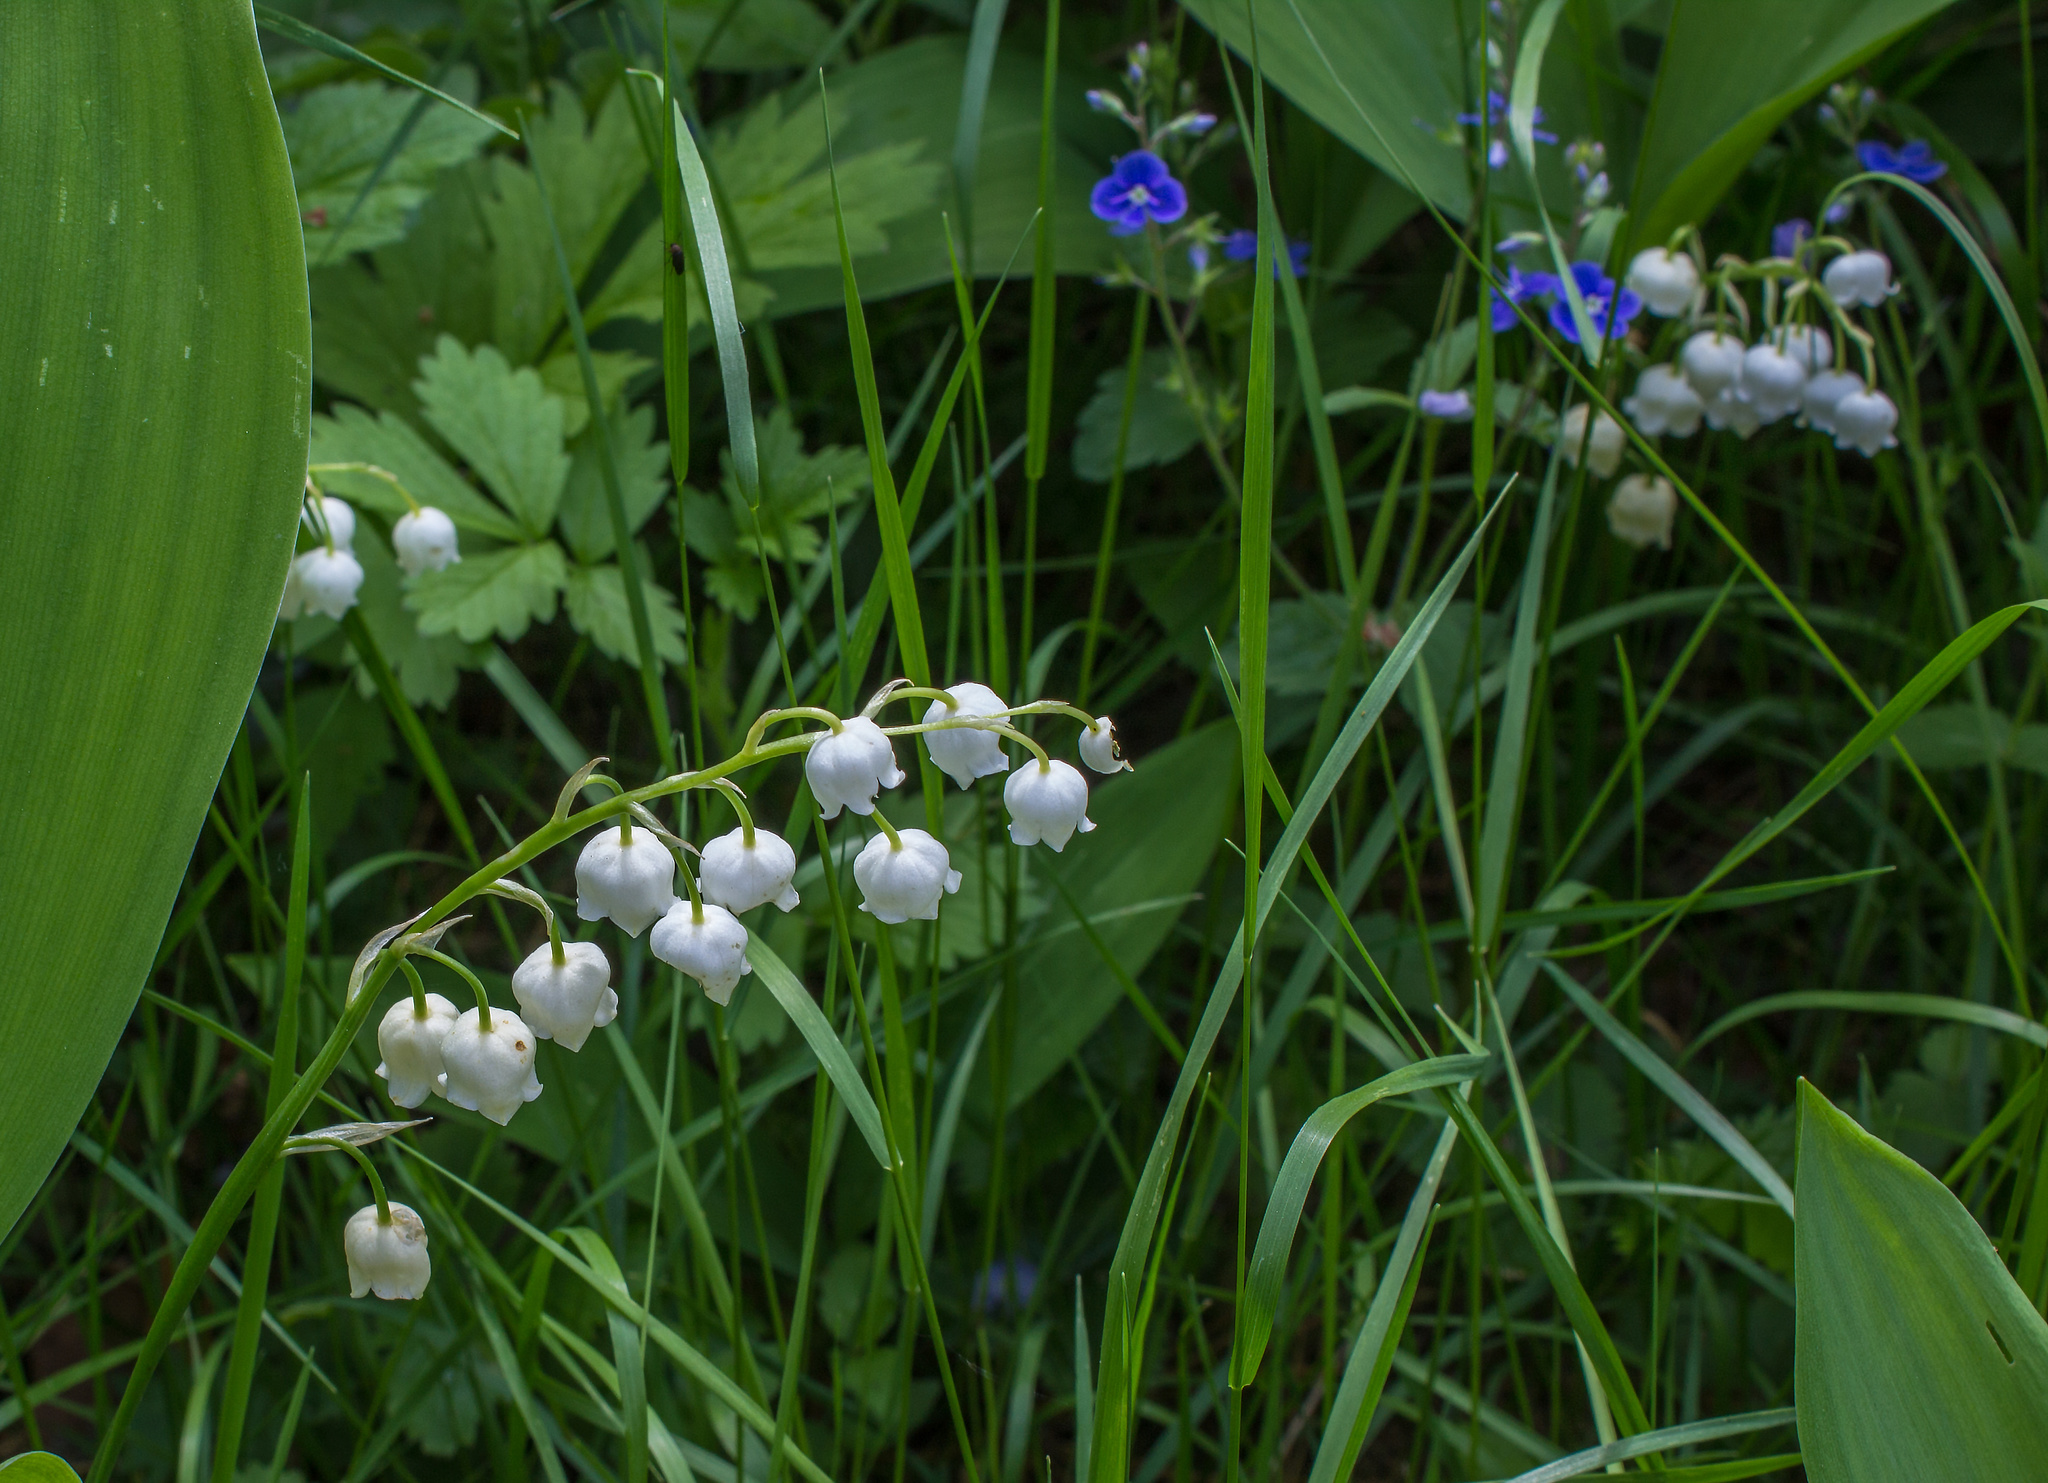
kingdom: Plantae
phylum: Tracheophyta
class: Liliopsida
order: Asparagales
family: Asparagaceae
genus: Convallaria
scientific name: Convallaria majalis
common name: Lily-of-the-valley
